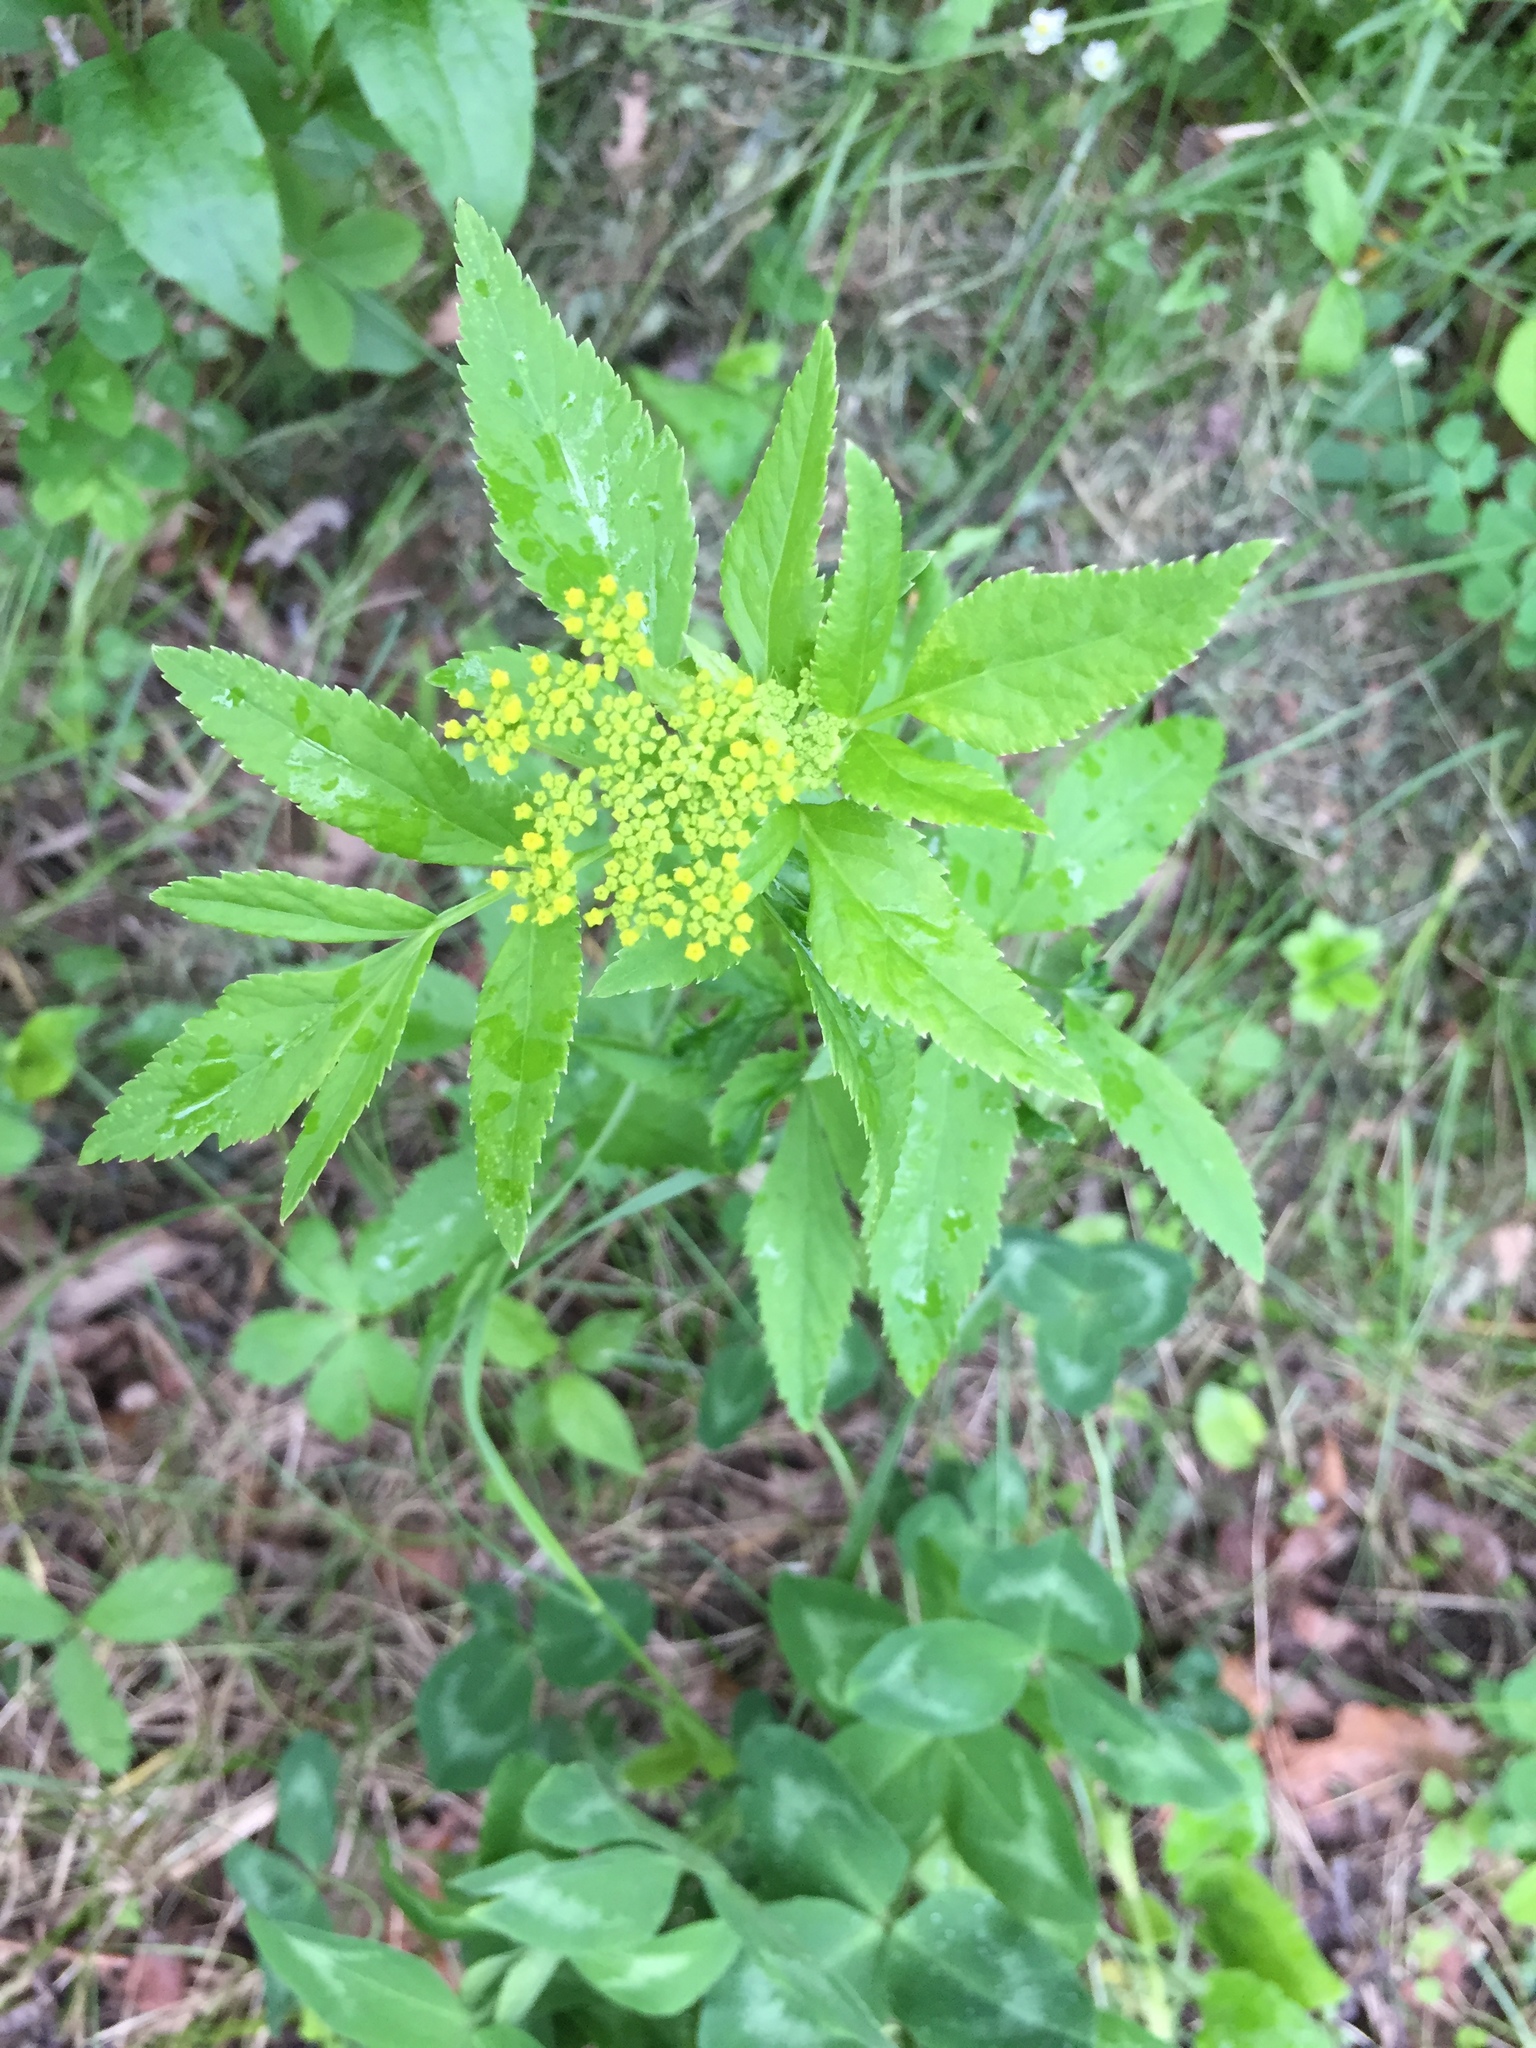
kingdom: Plantae
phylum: Tracheophyta
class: Magnoliopsida
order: Apiales
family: Apiaceae
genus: Zizia
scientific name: Zizia aurea
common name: Golden alexanders
